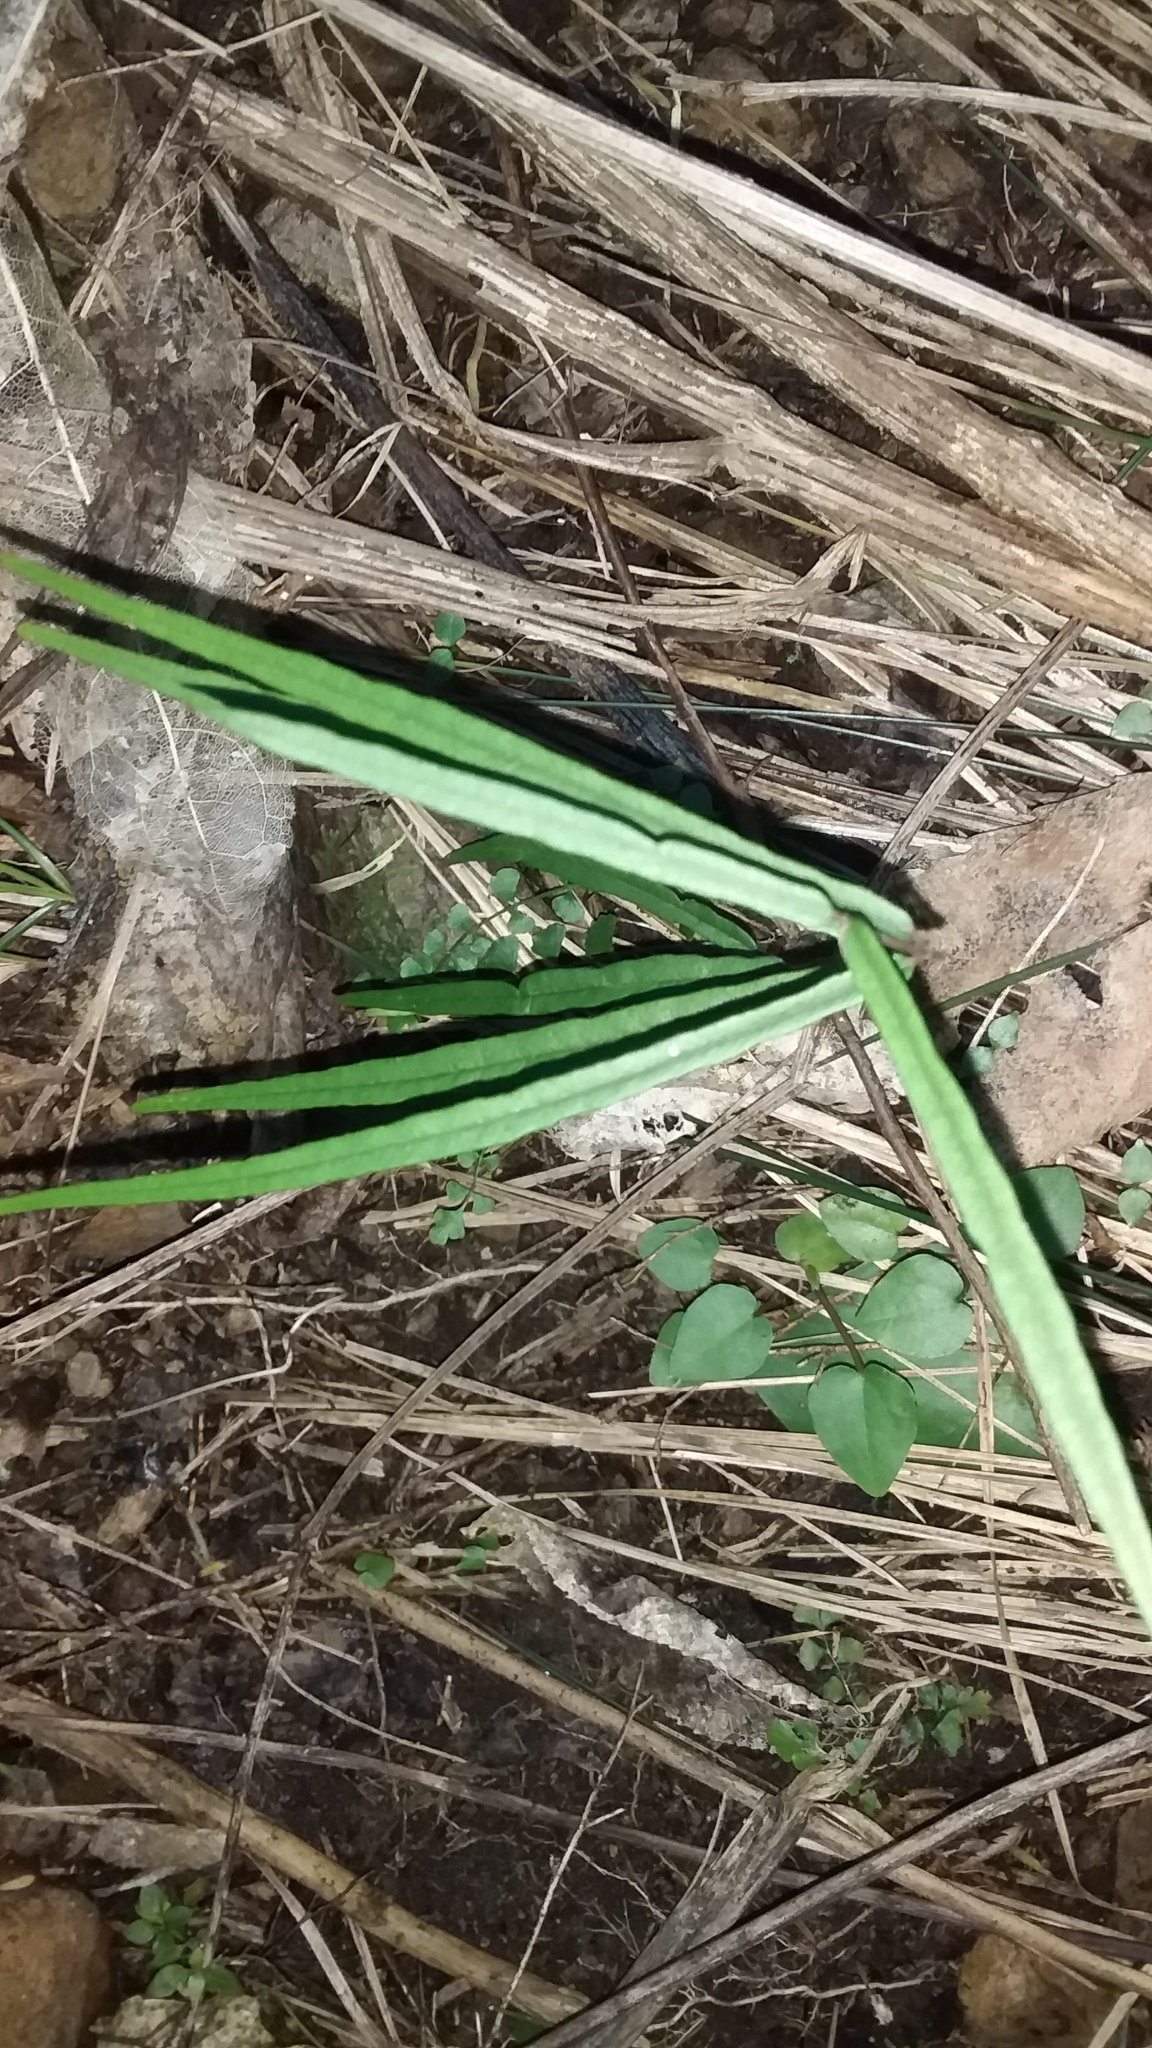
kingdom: Plantae
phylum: Tracheophyta
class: Magnoliopsida
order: Gentianales
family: Apocynaceae
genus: Parsonsia
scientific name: Parsonsia heterophylla
